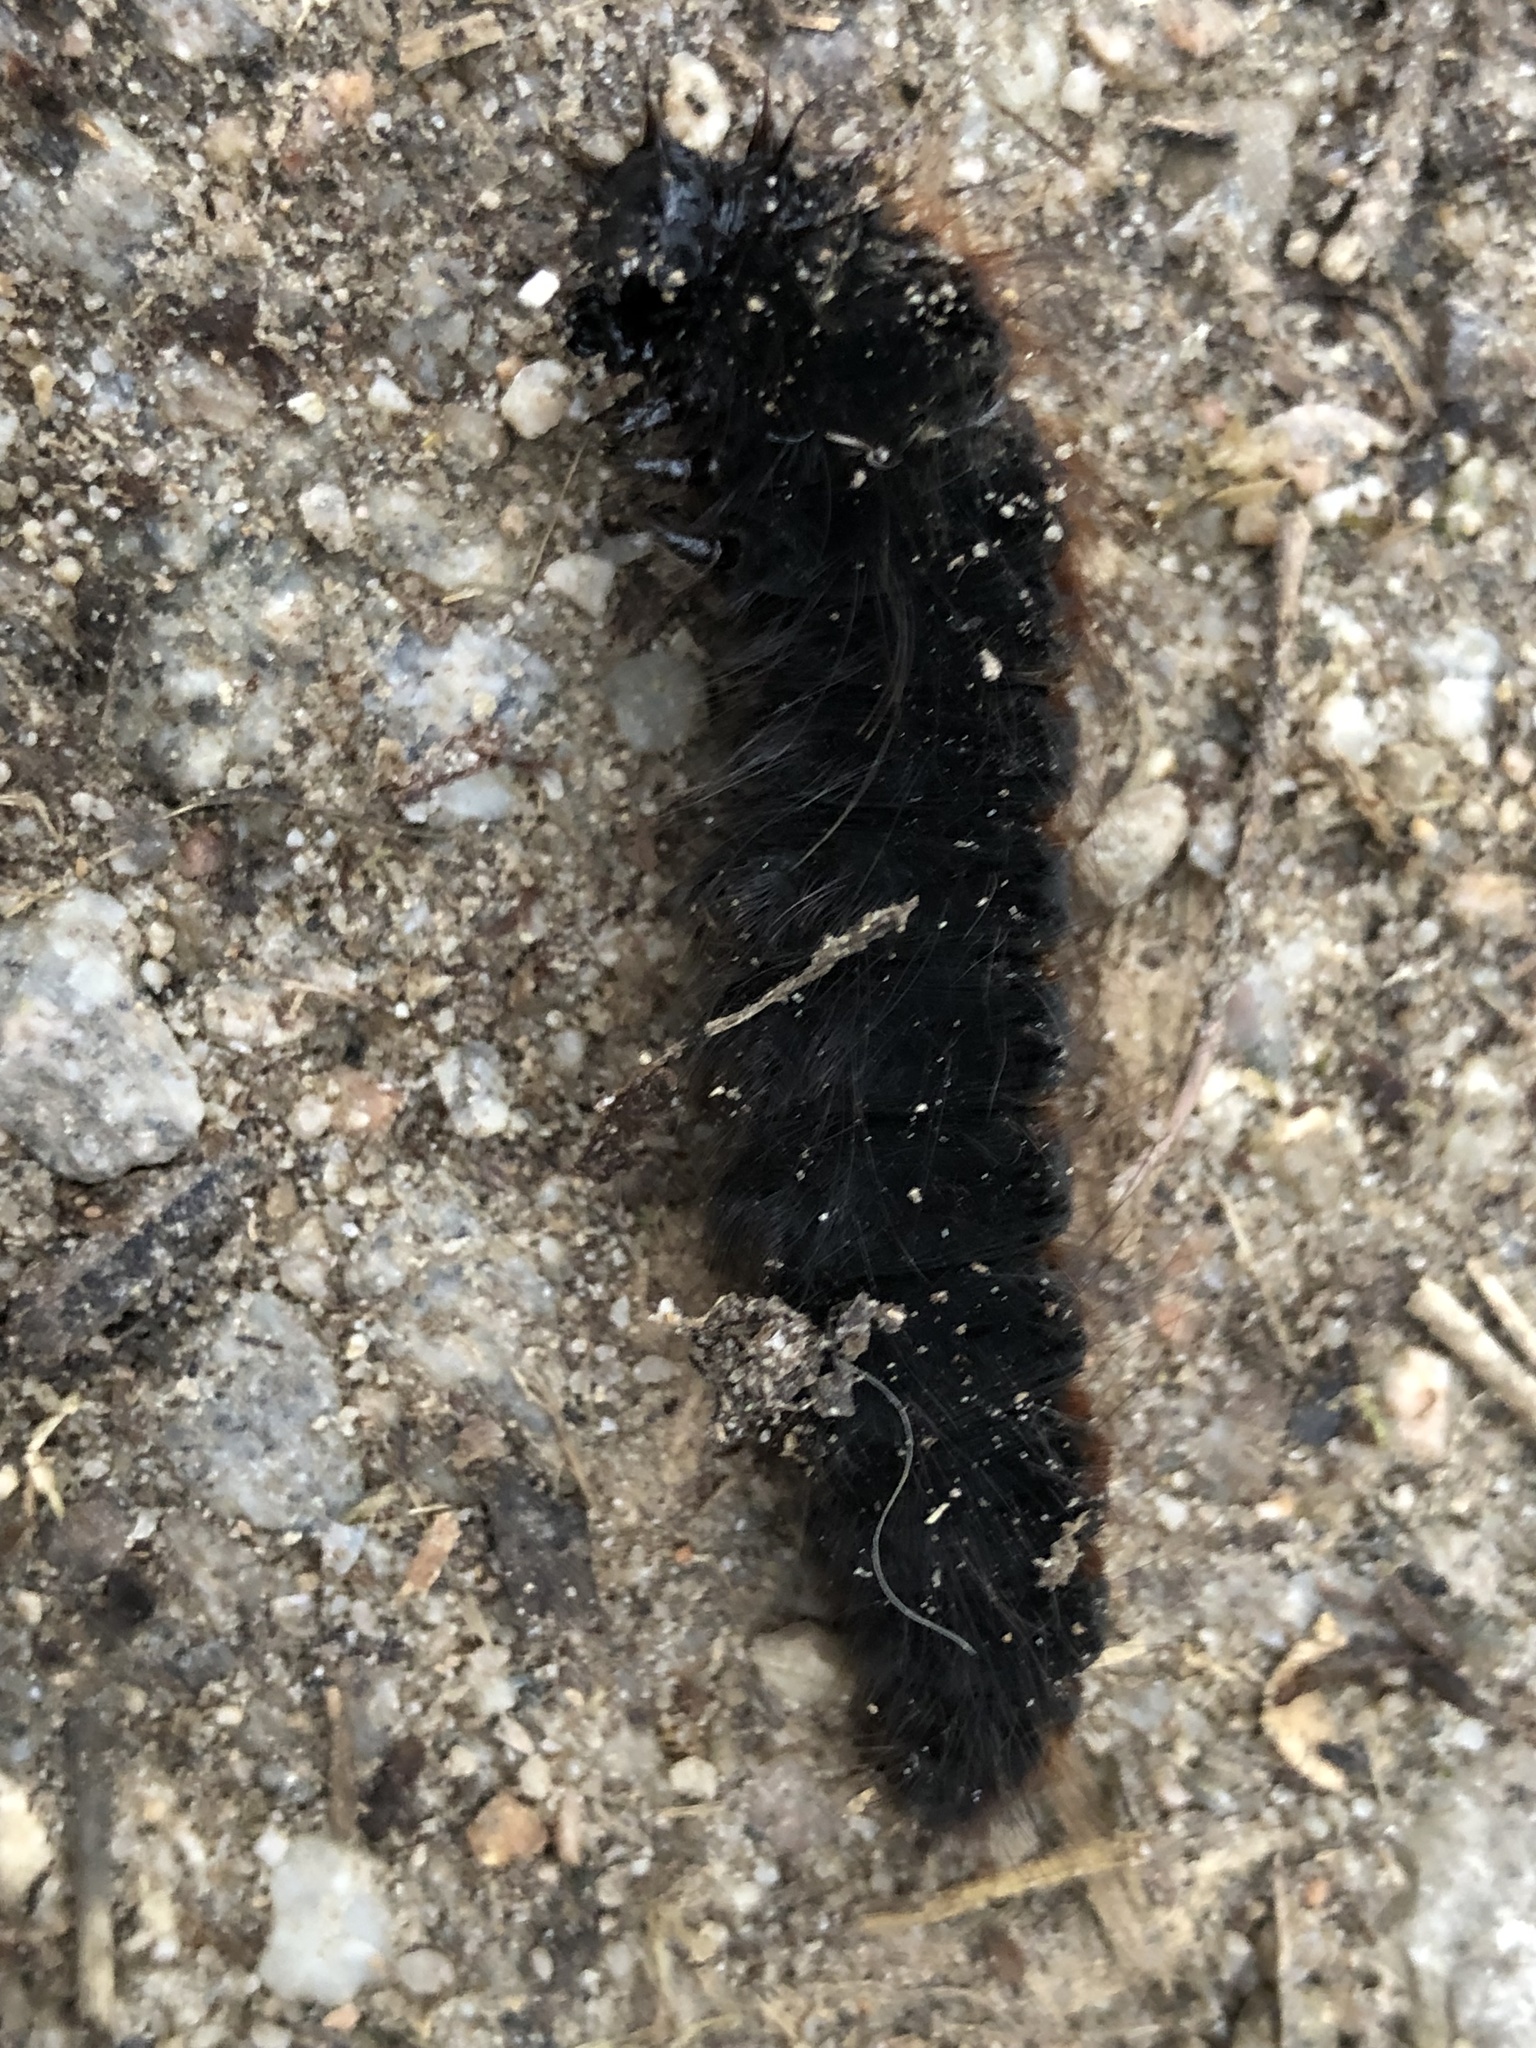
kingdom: Animalia
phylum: Arthropoda
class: Insecta
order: Lepidoptera
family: Lasiocampidae
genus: Macrothylacia
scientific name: Macrothylacia rubi
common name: Fox moth
